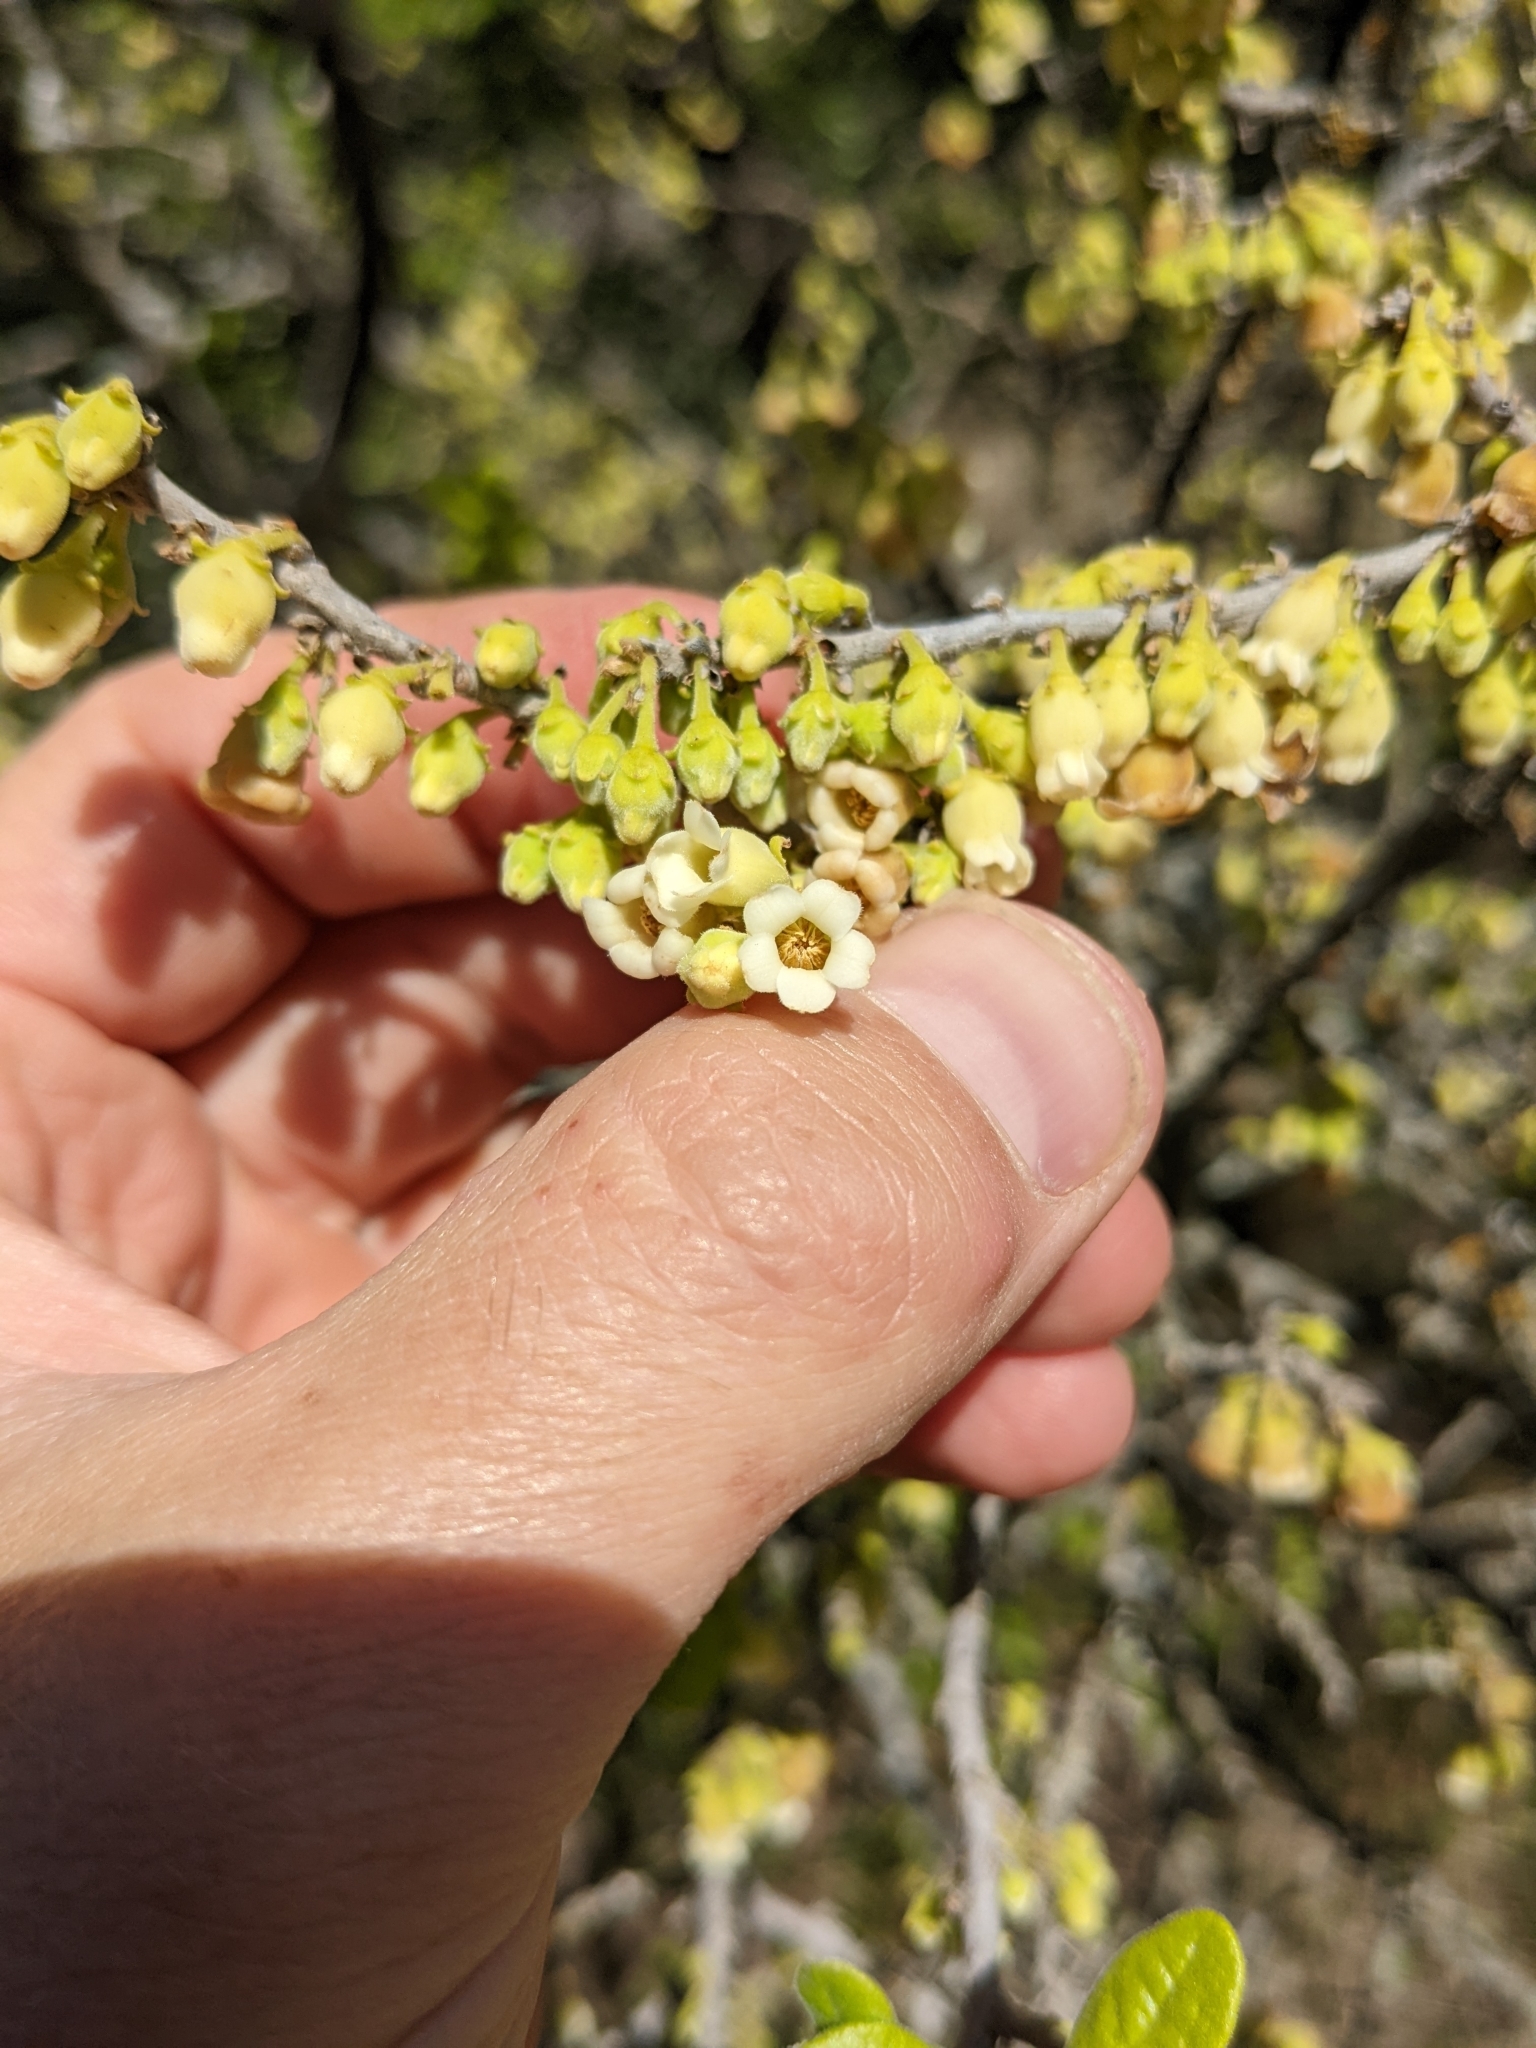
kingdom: Plantae
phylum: Tracheophyta
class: Magnoliopsida
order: Ericales
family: Ebenaceae
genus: Diospyros
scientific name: Diospyros texana
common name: Texas persimmon
